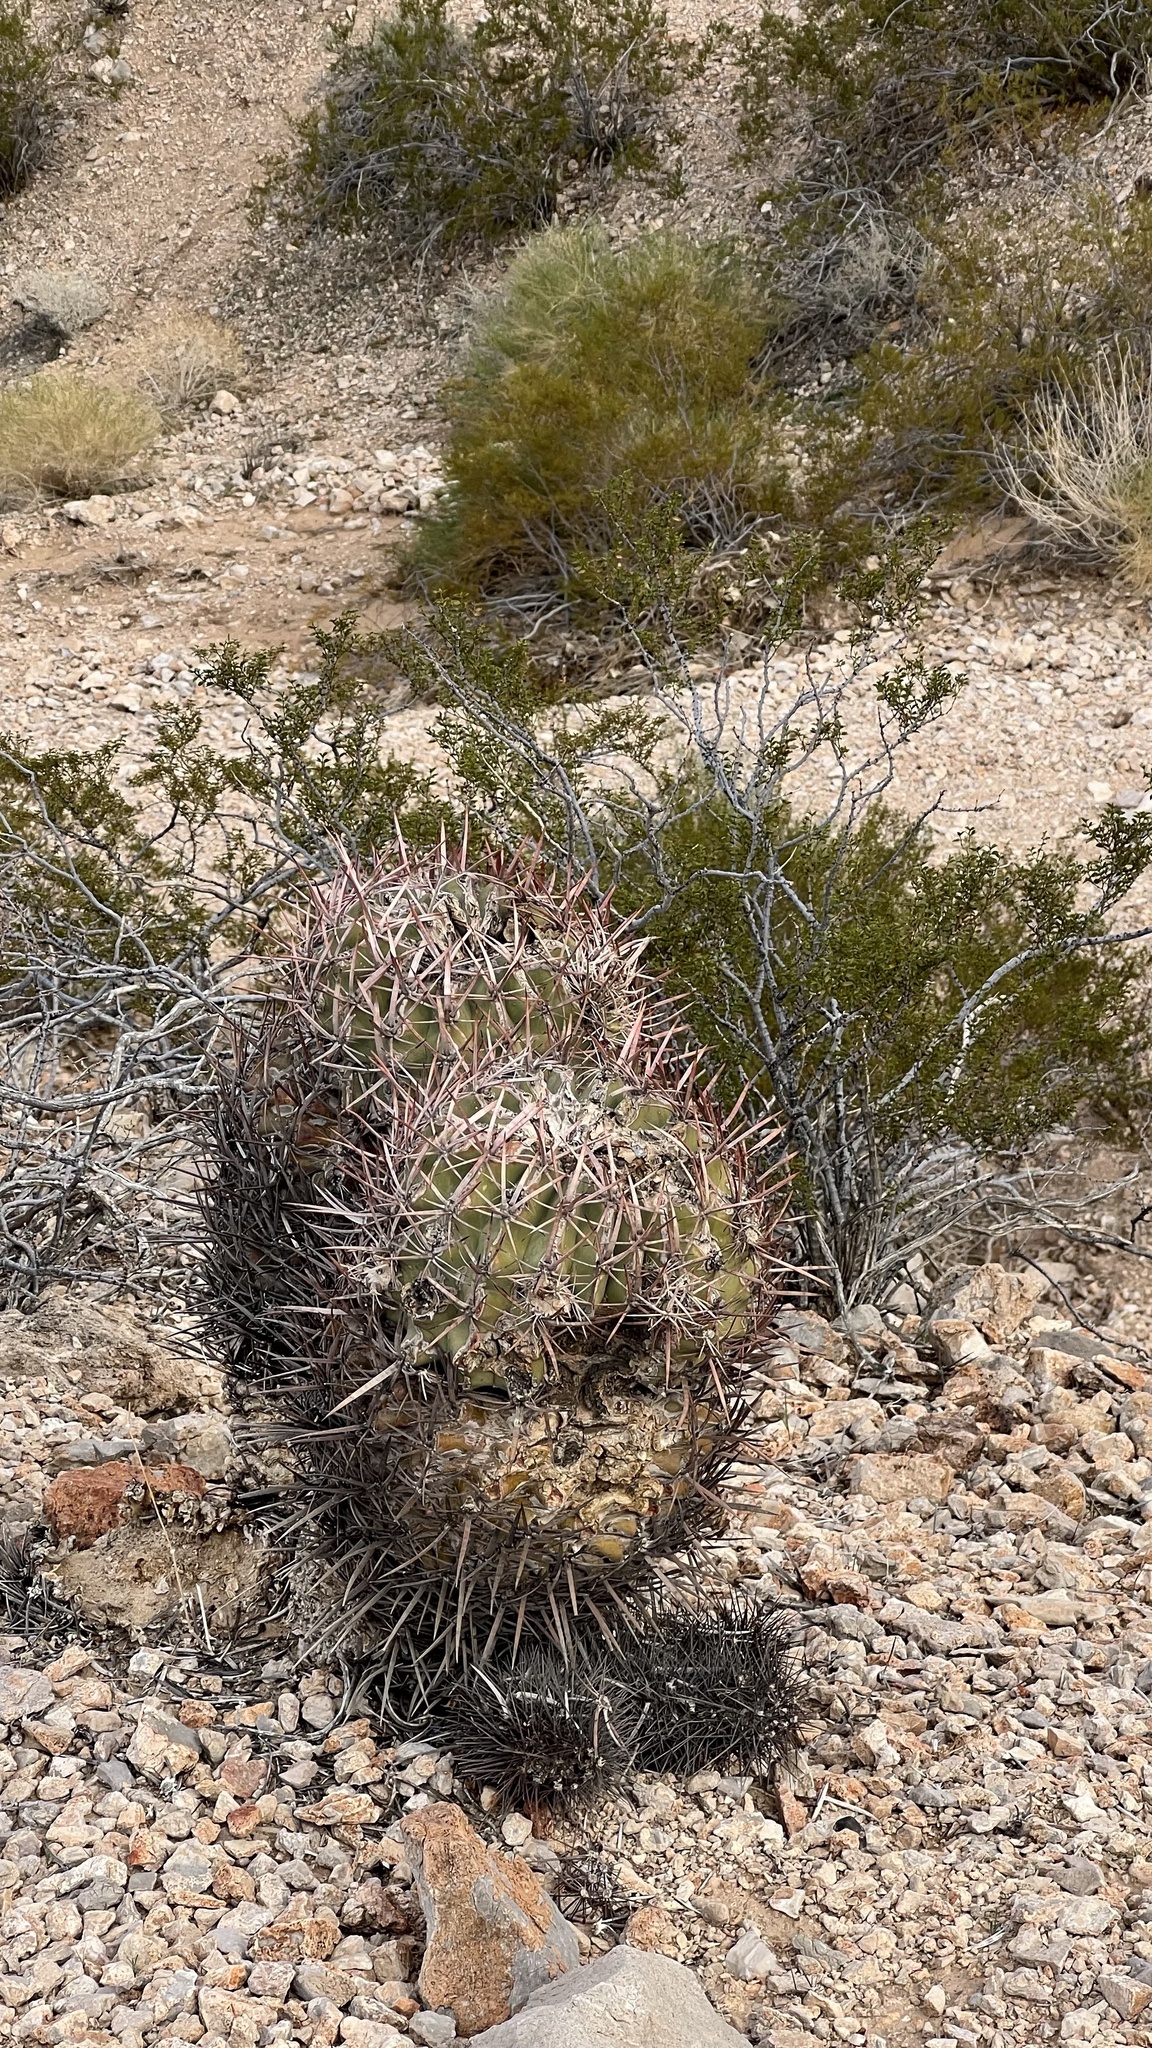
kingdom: Plantae
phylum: Tracheophyta
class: Magnoliopsida
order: Caryophyllales
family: Cactaceae
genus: Echinocactus
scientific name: Echinocactus polycephalus
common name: Cottontop cactus
